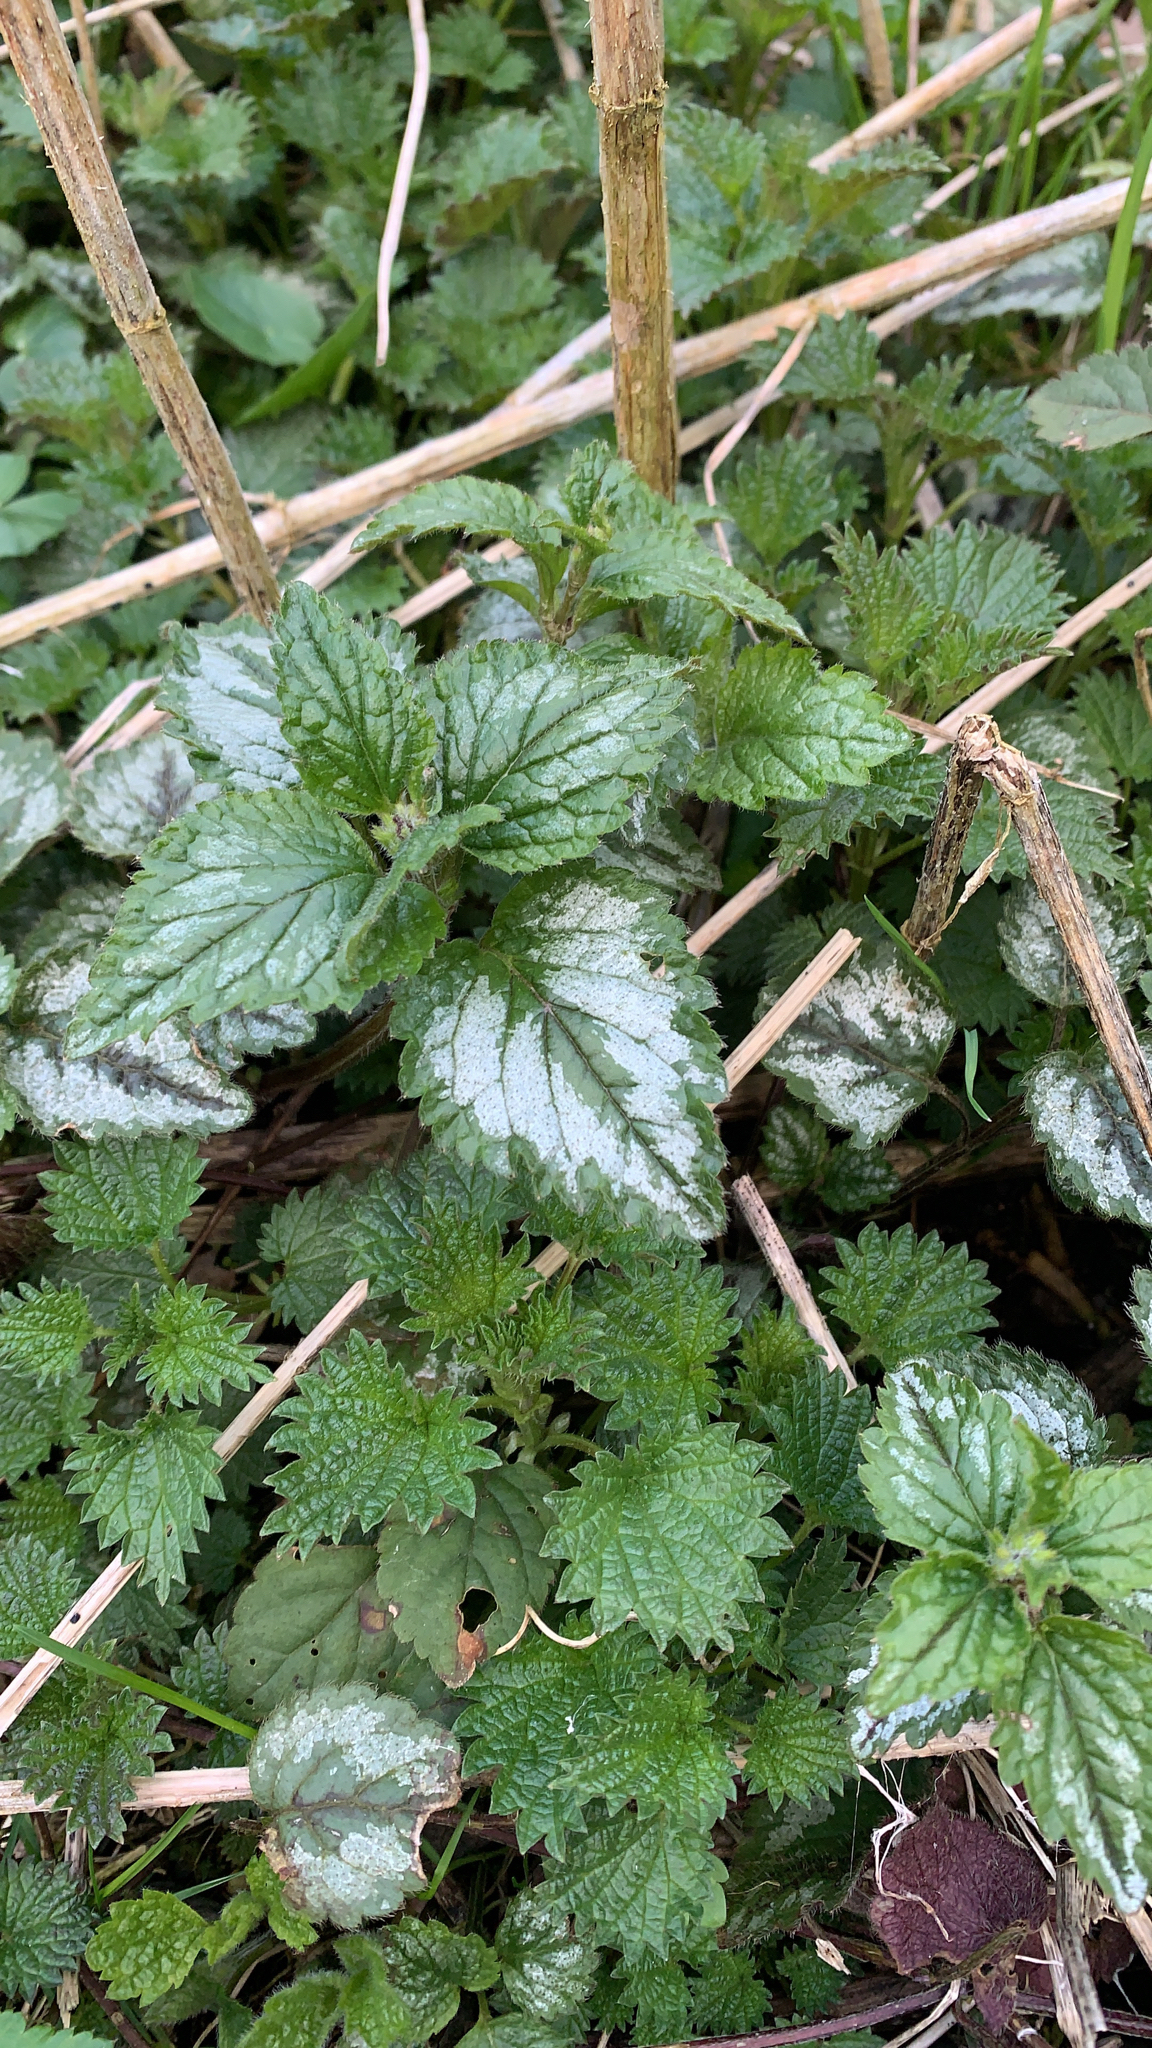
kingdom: Plantae
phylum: Tracheophyta
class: Magnoliopsida
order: Lamiales
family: Lamiaceae
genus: Lamium
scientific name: Lamium galeobdolon
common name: Yellow archangel
